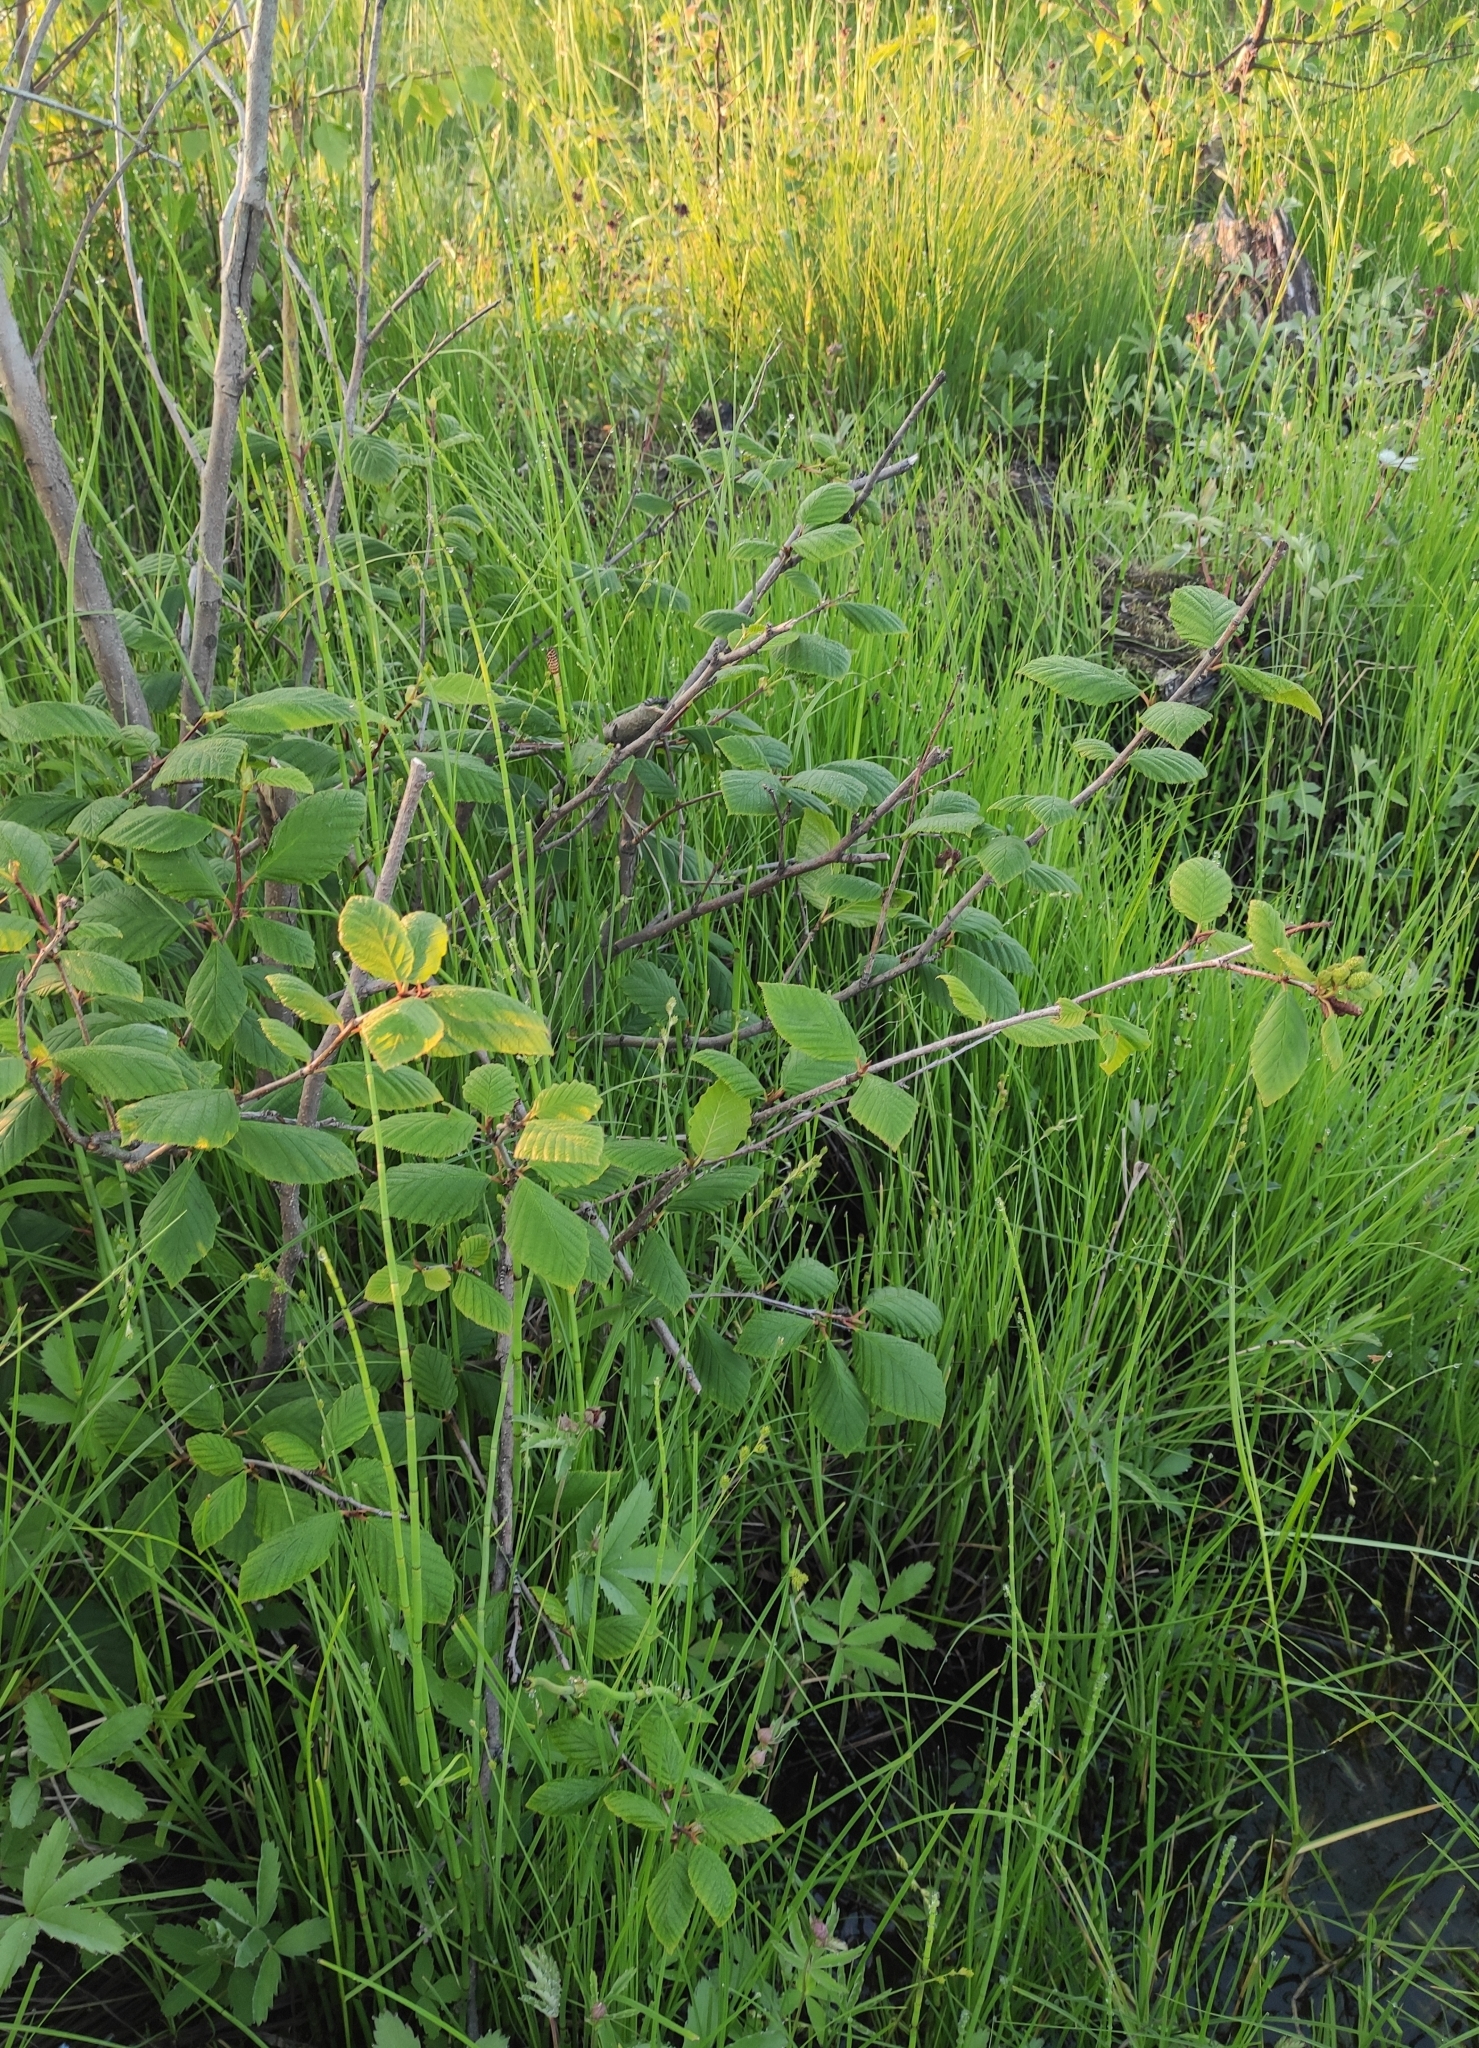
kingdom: Plantae
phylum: Tracheophyta
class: Magnoliopsida
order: Fagales
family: Betulaceae
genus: Alnus
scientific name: Alnus alnobetula
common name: Green alder
